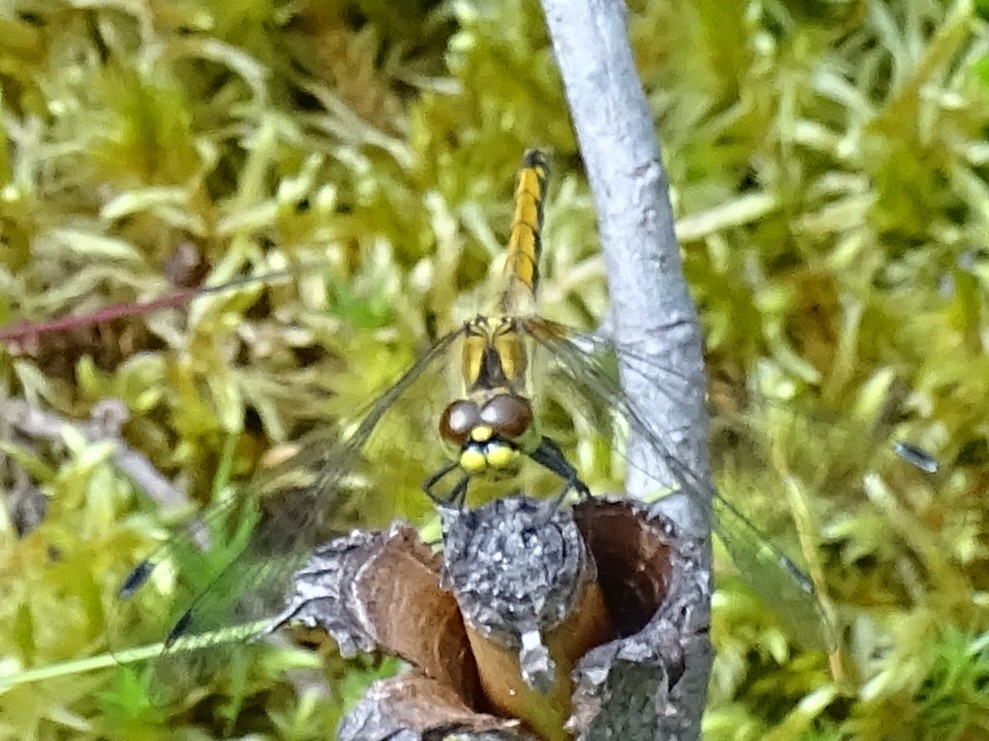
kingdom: Animalia
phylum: Arthropoda
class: Insecta
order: Odonata
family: Libellulidae
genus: Sympetrum
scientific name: Sympetrum danae
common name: Black darter
